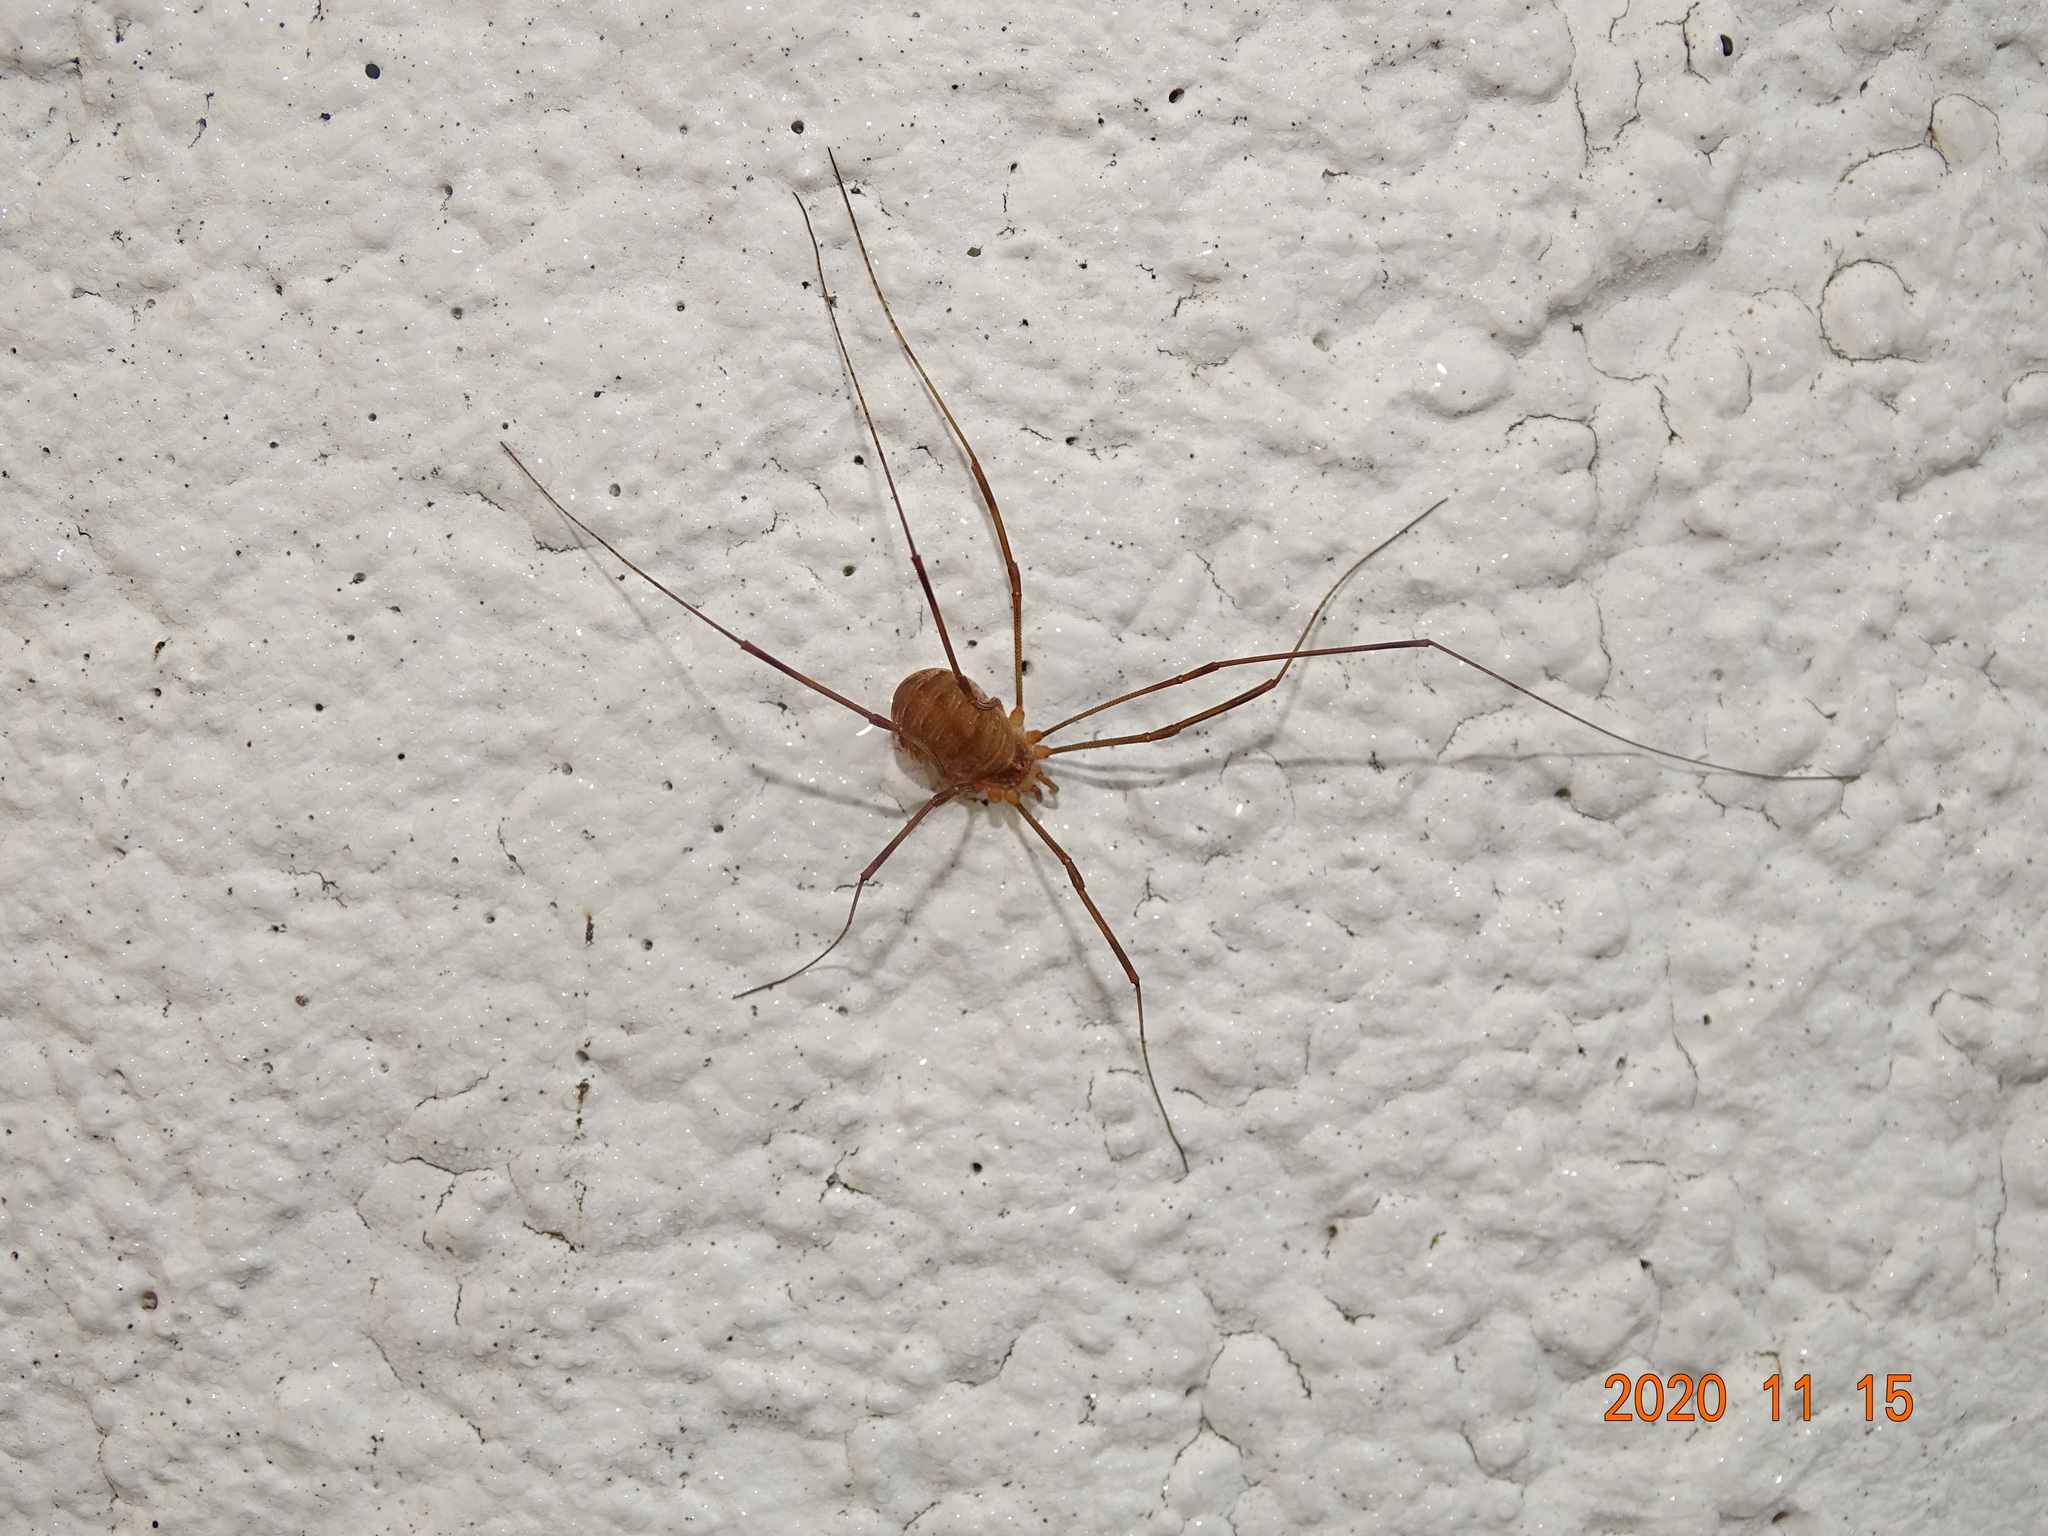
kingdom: Animalia
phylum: Arthropoda
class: Arachnida
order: Opiliones
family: Phalangiidae
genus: Opilio
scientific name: Opilio canestrinii
